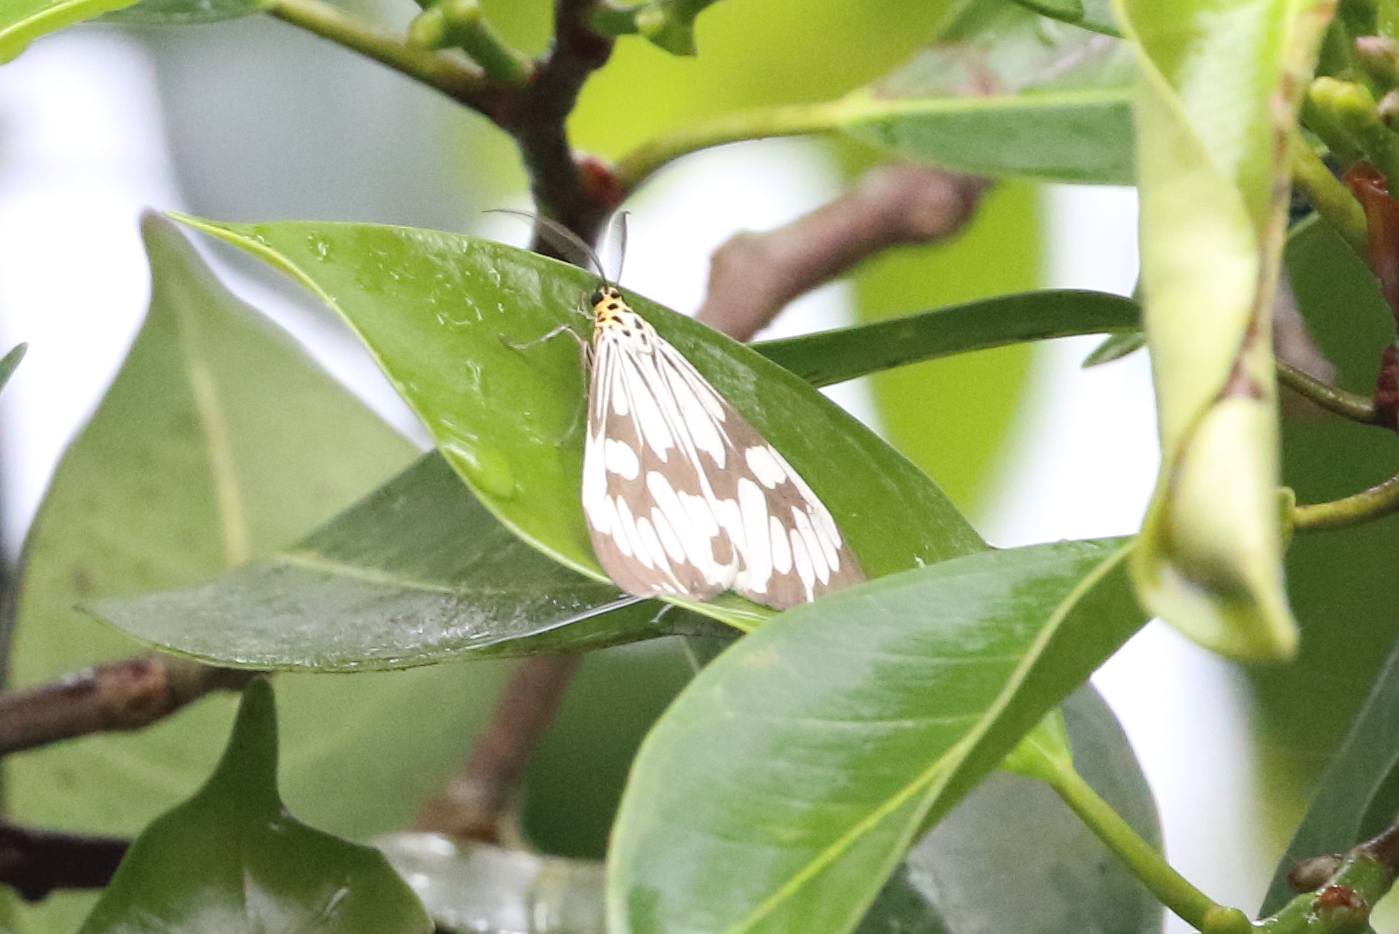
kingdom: Animalia
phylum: Arthropoda
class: Insecta
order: Lepidoptera
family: Erebidae
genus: Nyctemera
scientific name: Nyctemera adversata
